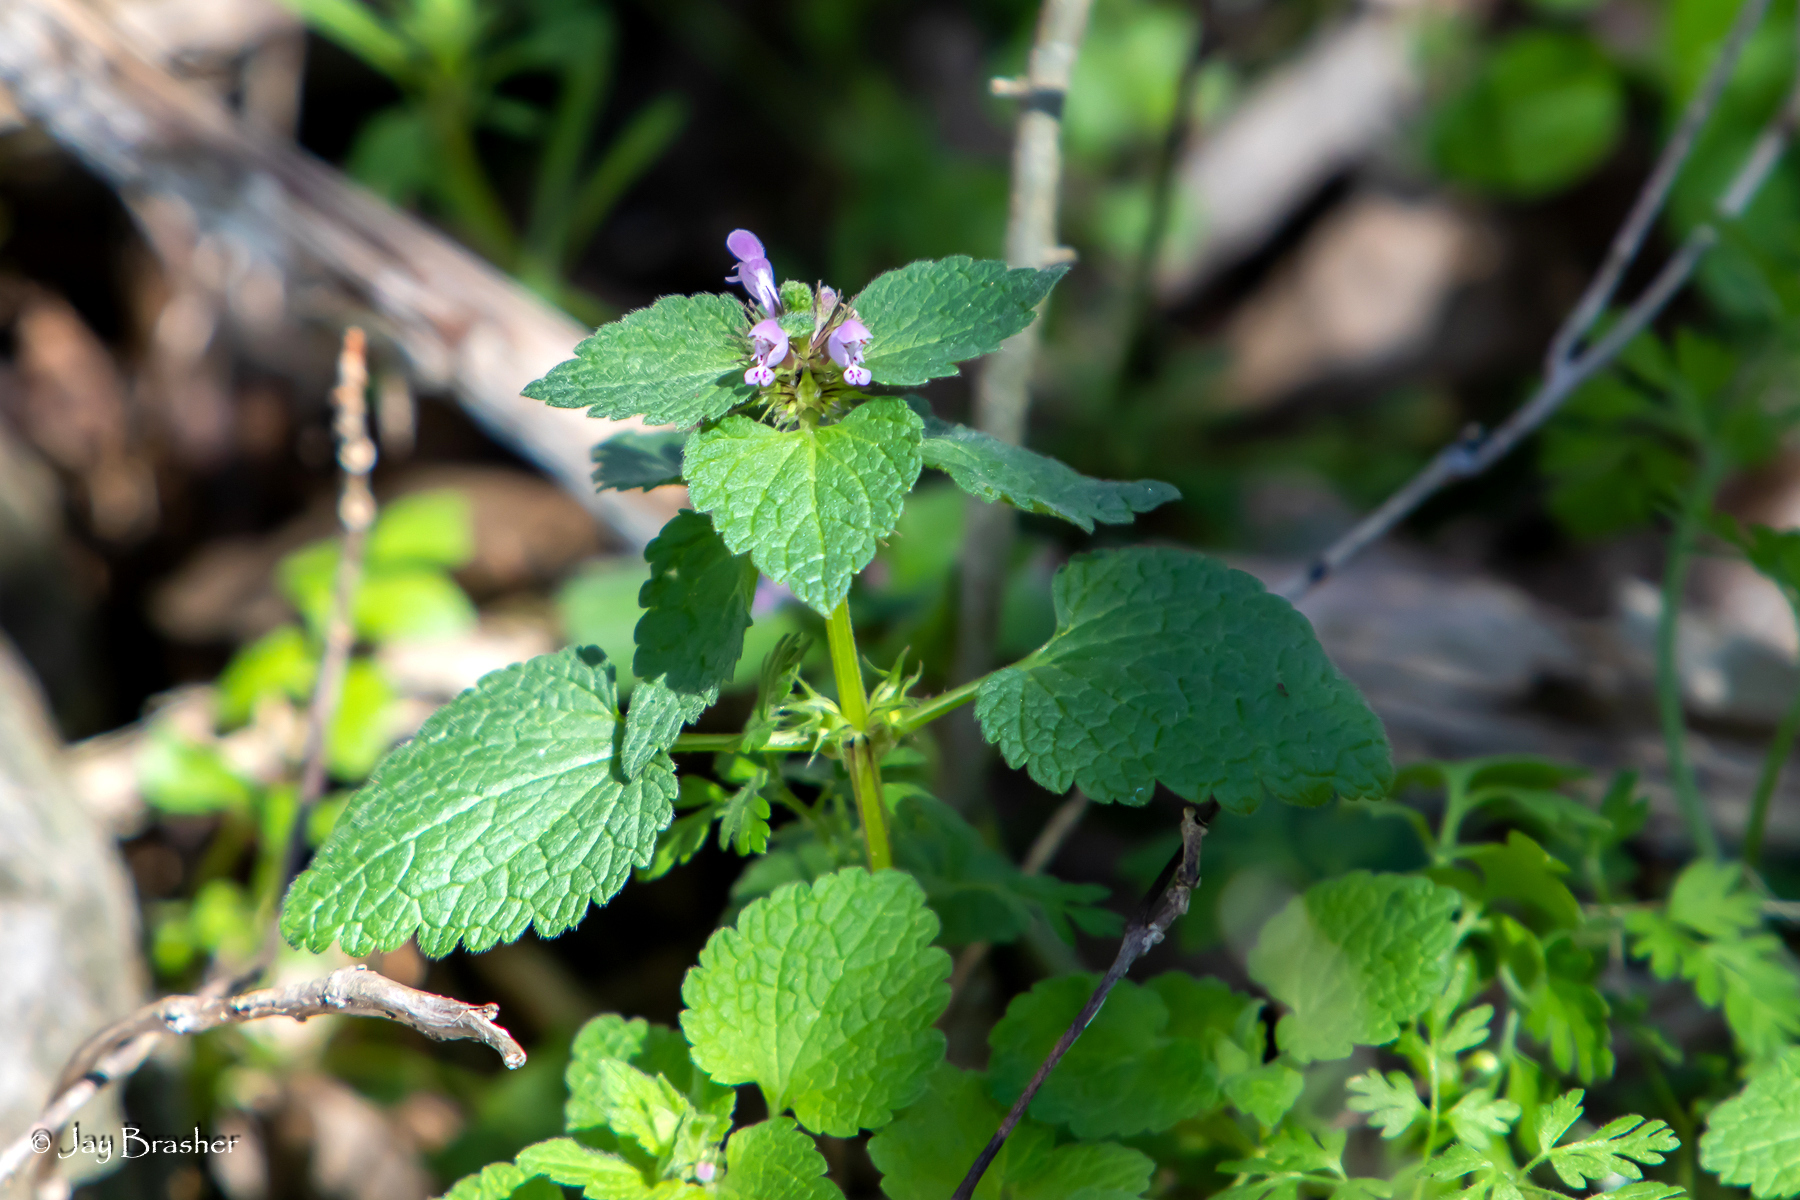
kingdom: Plantae
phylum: Tracheophyta
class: Magnoliopsida
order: Lamiales
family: Lamiaceae
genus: Lamium
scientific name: Lamium purpureum
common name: Red dead-nettle
